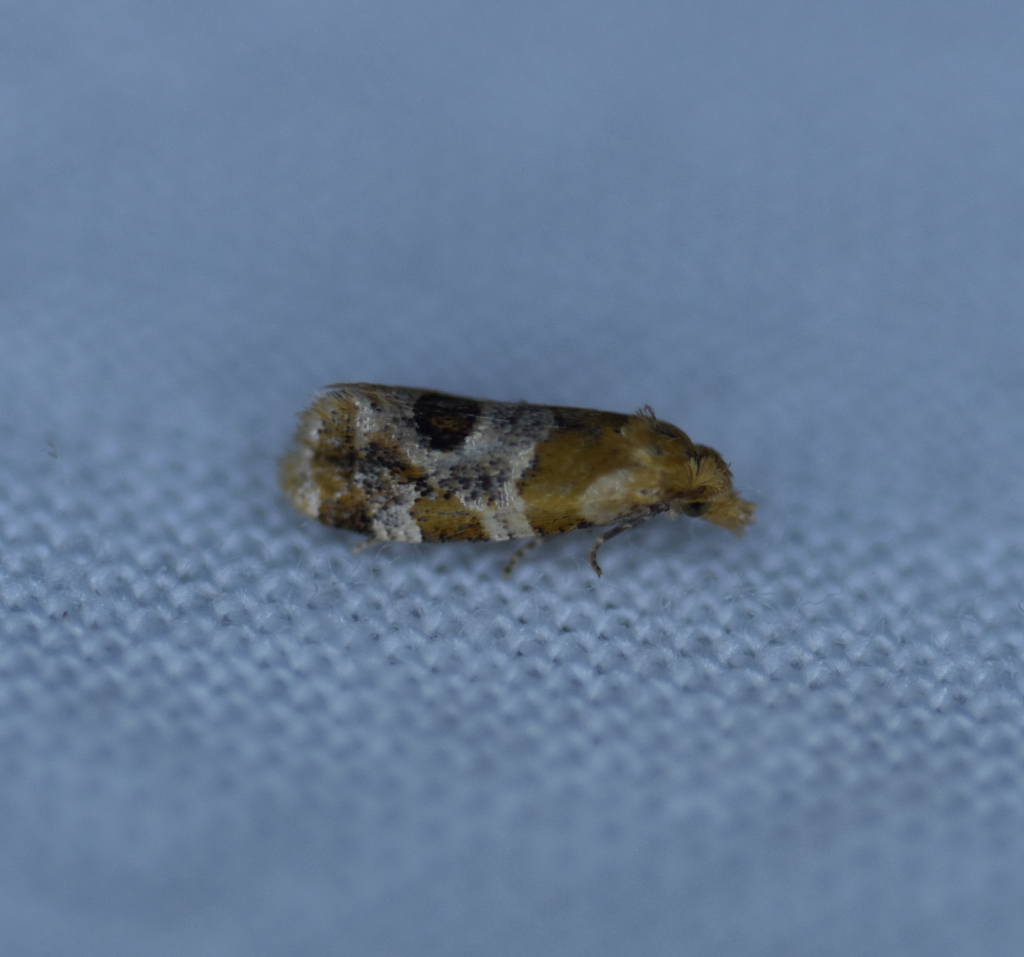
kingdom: Animalia
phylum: Arthropoda
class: Insecta
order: Lepidoptera
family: Tortricidae
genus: Aethes
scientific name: Aethes interruptofasciata
